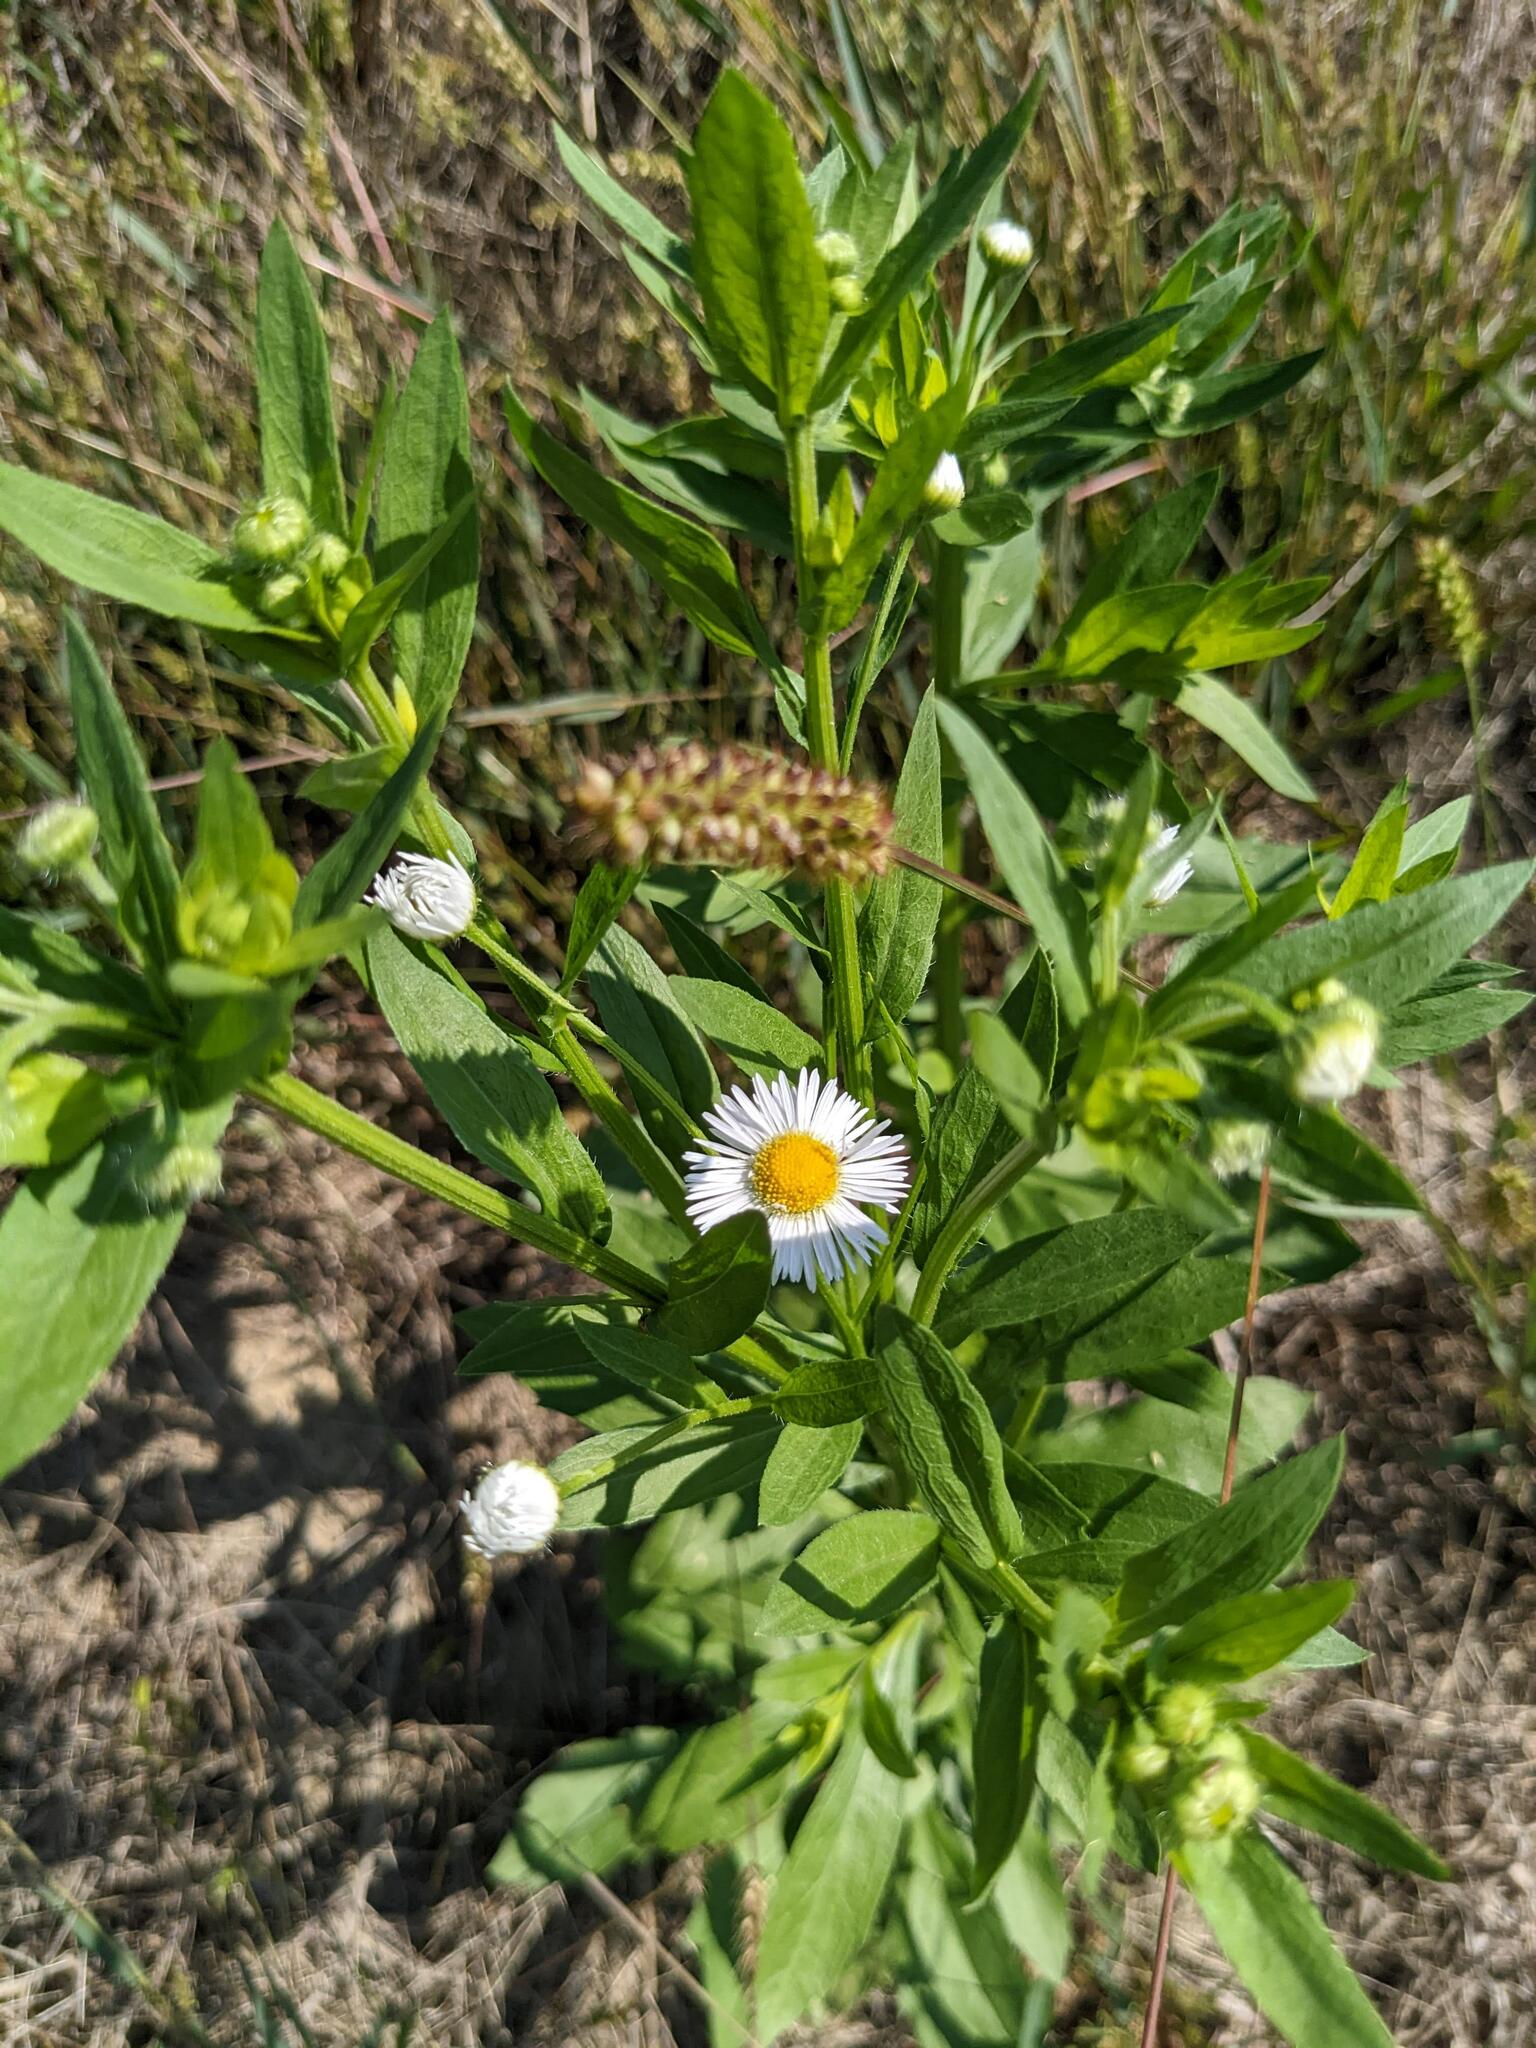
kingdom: Plantae
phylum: Tracheophyta
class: Magnoliopsida
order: Asterales
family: Asteraceae
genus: Erigeron
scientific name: Erigeron annuus
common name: Tall fleabane
